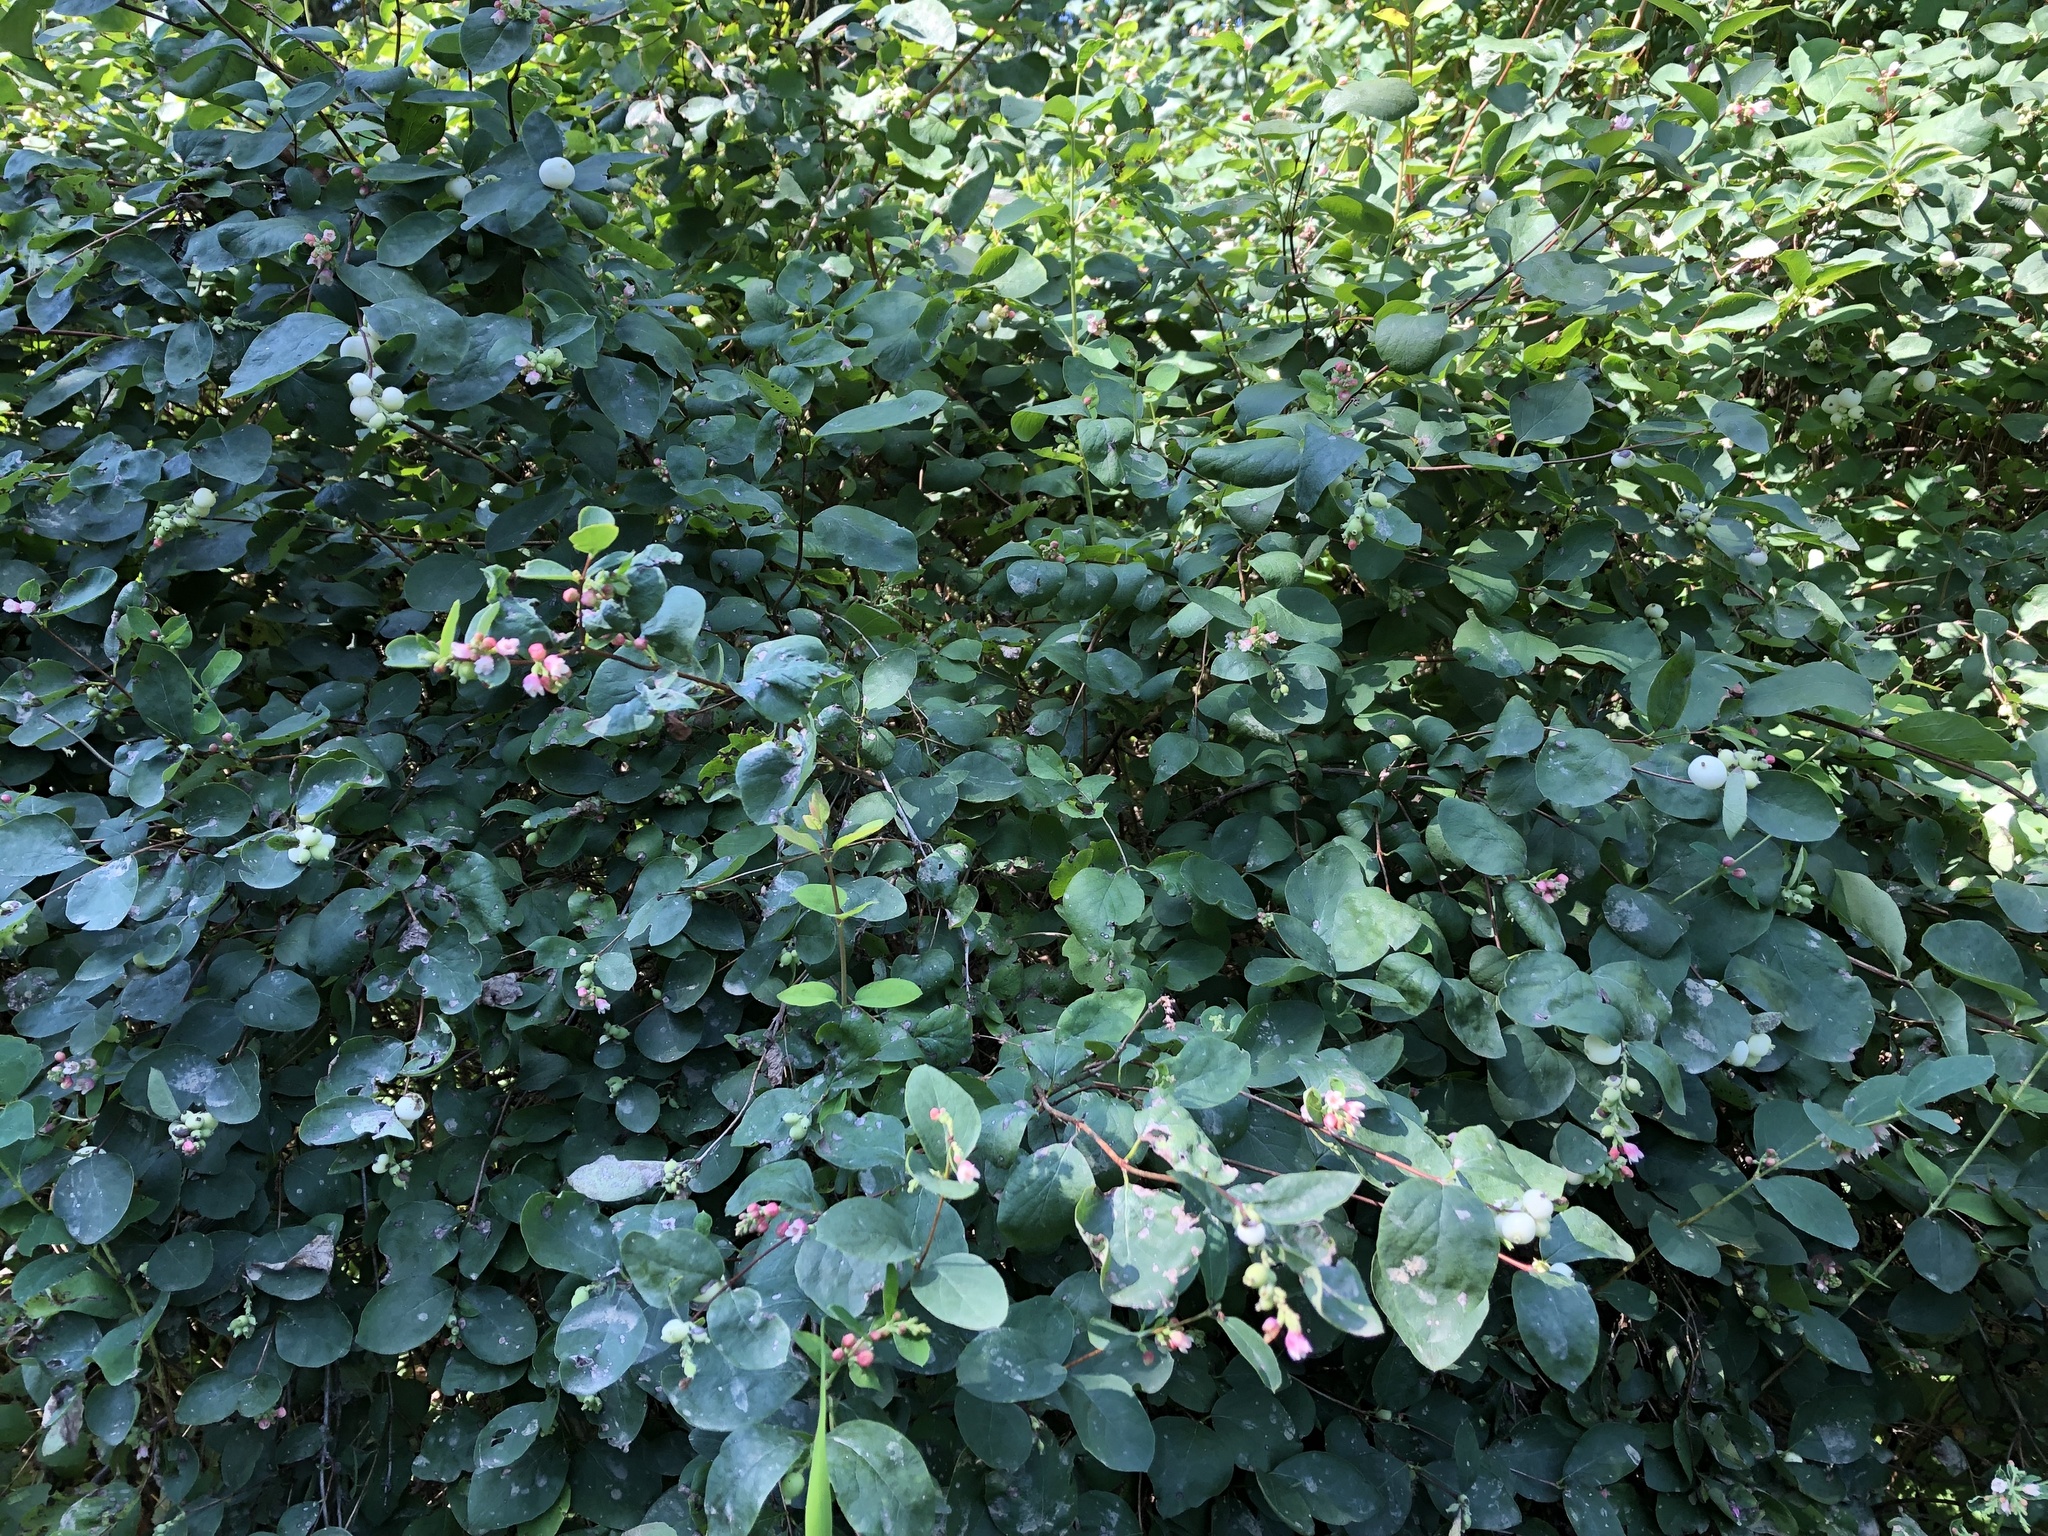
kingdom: Plantae
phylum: Tracheophyta
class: Magnoliopsida
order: Dipsacales
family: Caprifoliaceae
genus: Symphoricarpos
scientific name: Symphoricarpos albus
